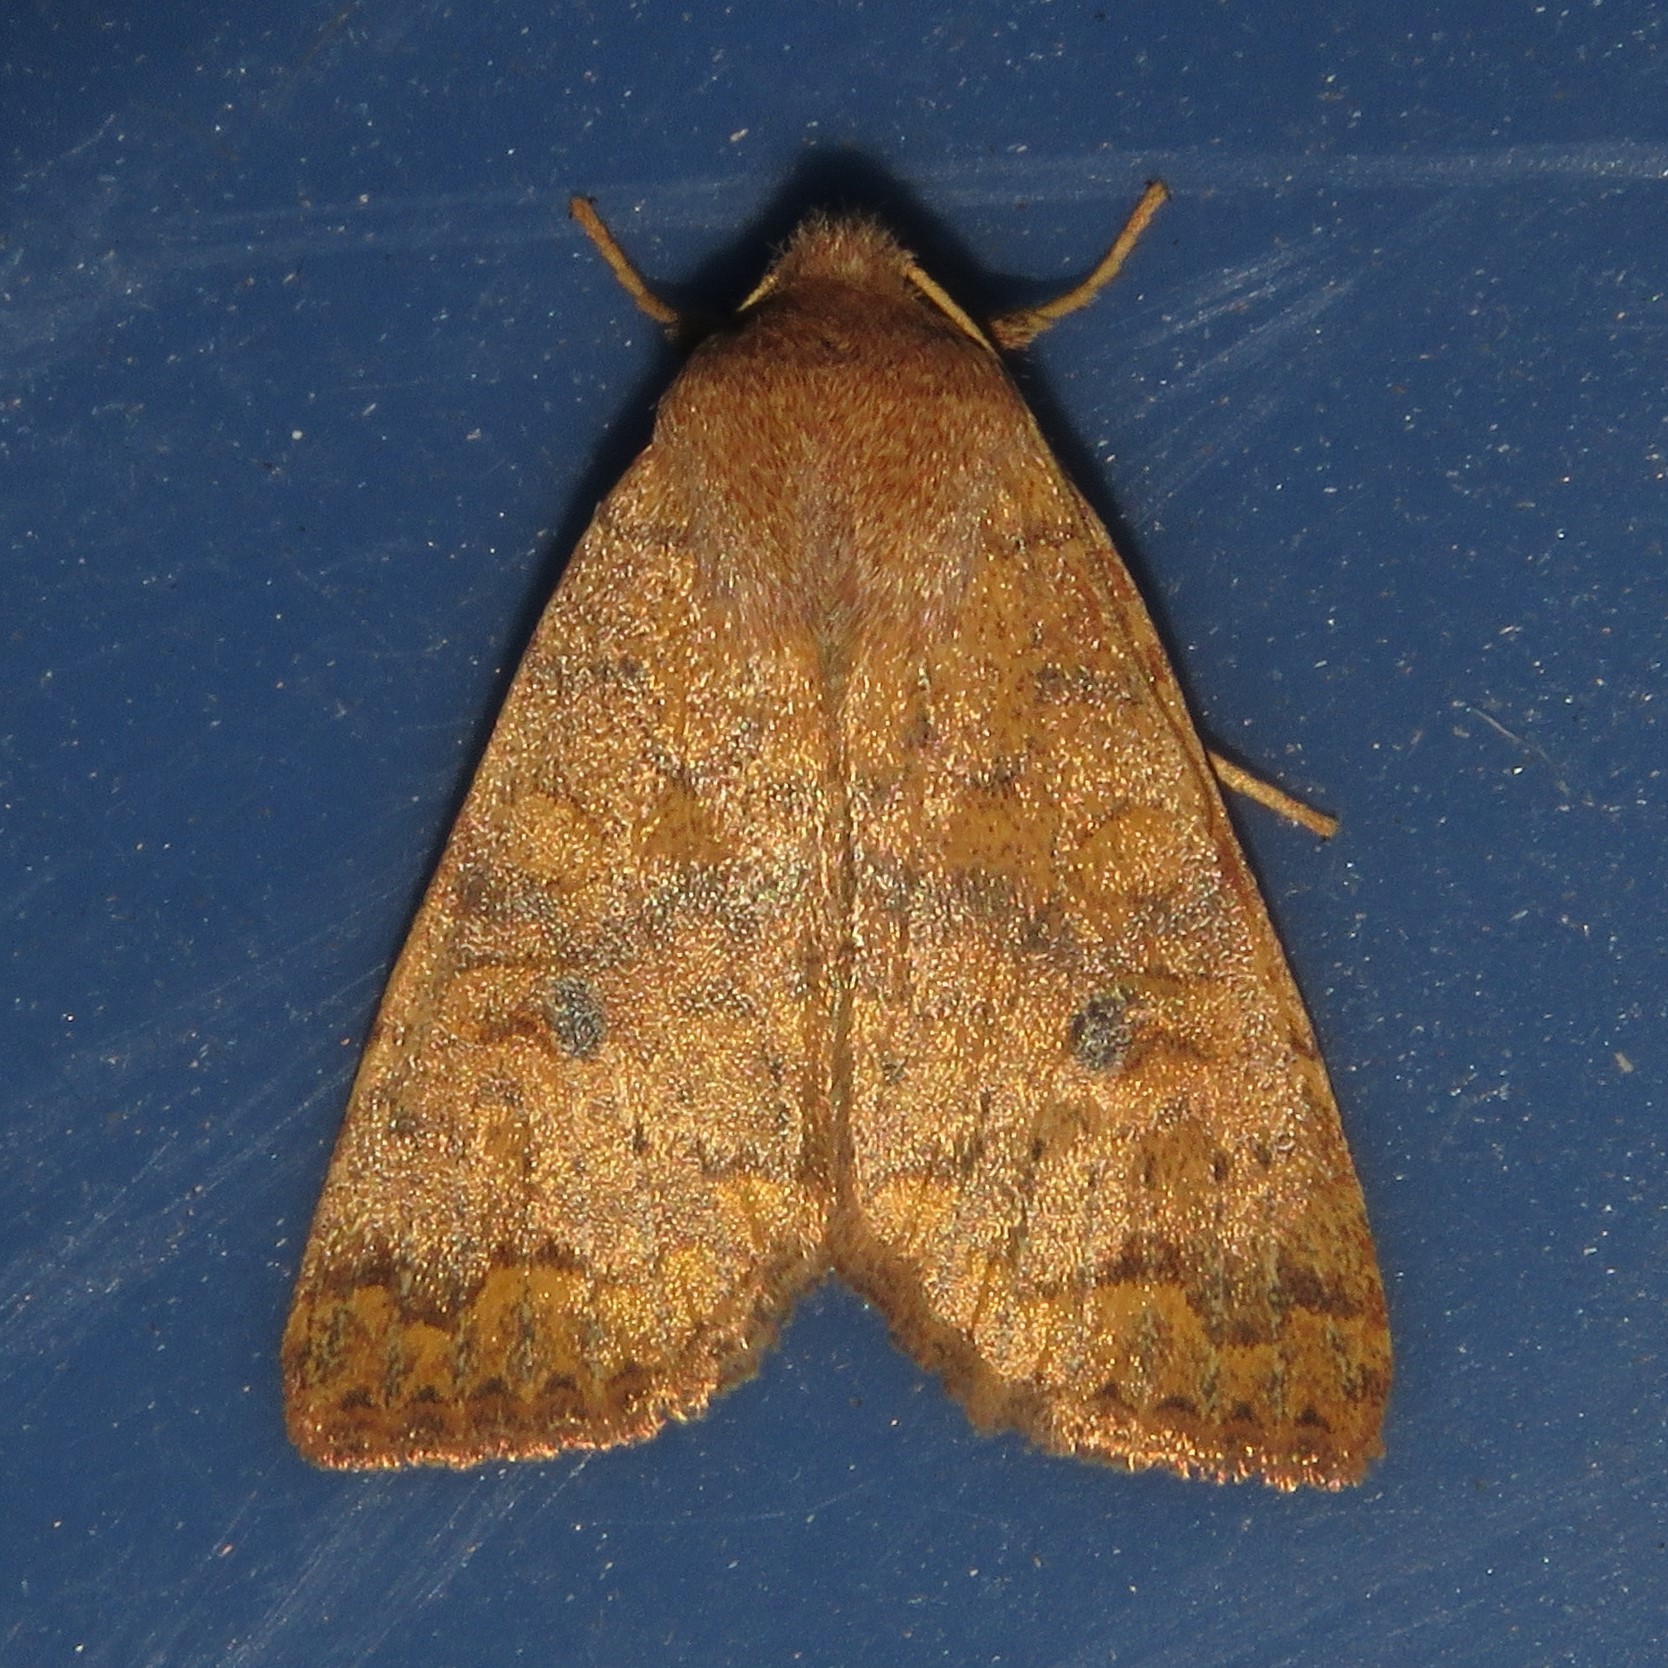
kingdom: Animalia
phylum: Arthropoda
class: Insecta
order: Lepidoptera
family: Noctuidae
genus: Agrochola
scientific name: Agrochola bicolorago
